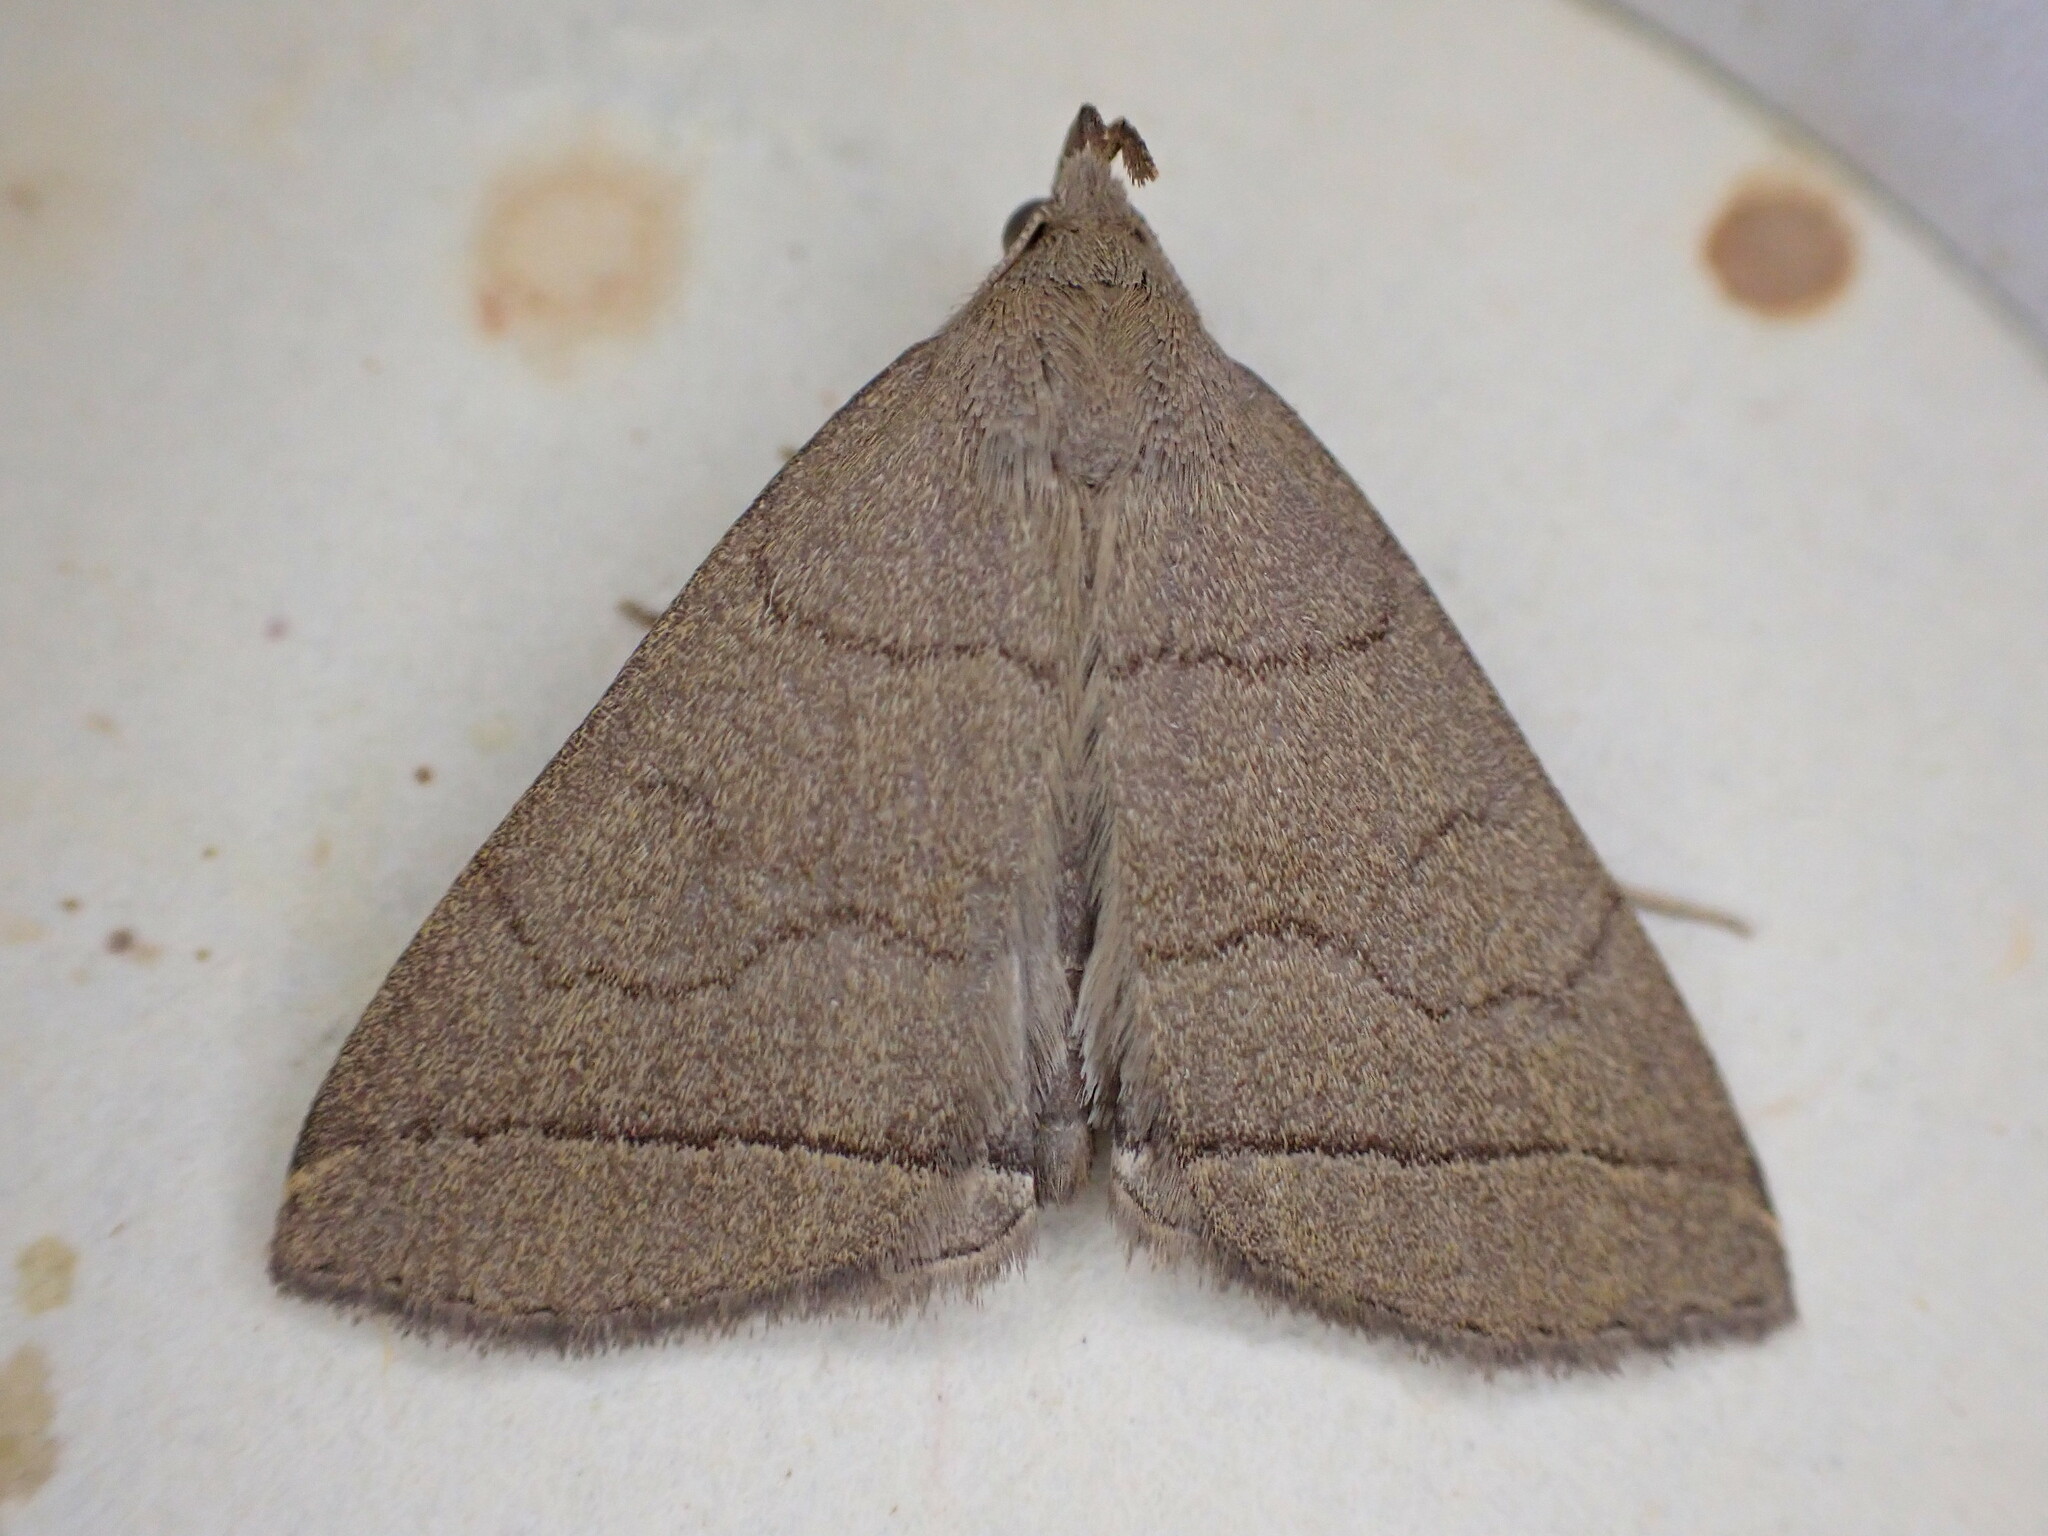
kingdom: Animalia
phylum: Arthropoda
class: Insecta
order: Lepidoptera
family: Erebidae
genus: Herminia
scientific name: Herminia tarsipennalis
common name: Fan-foot
